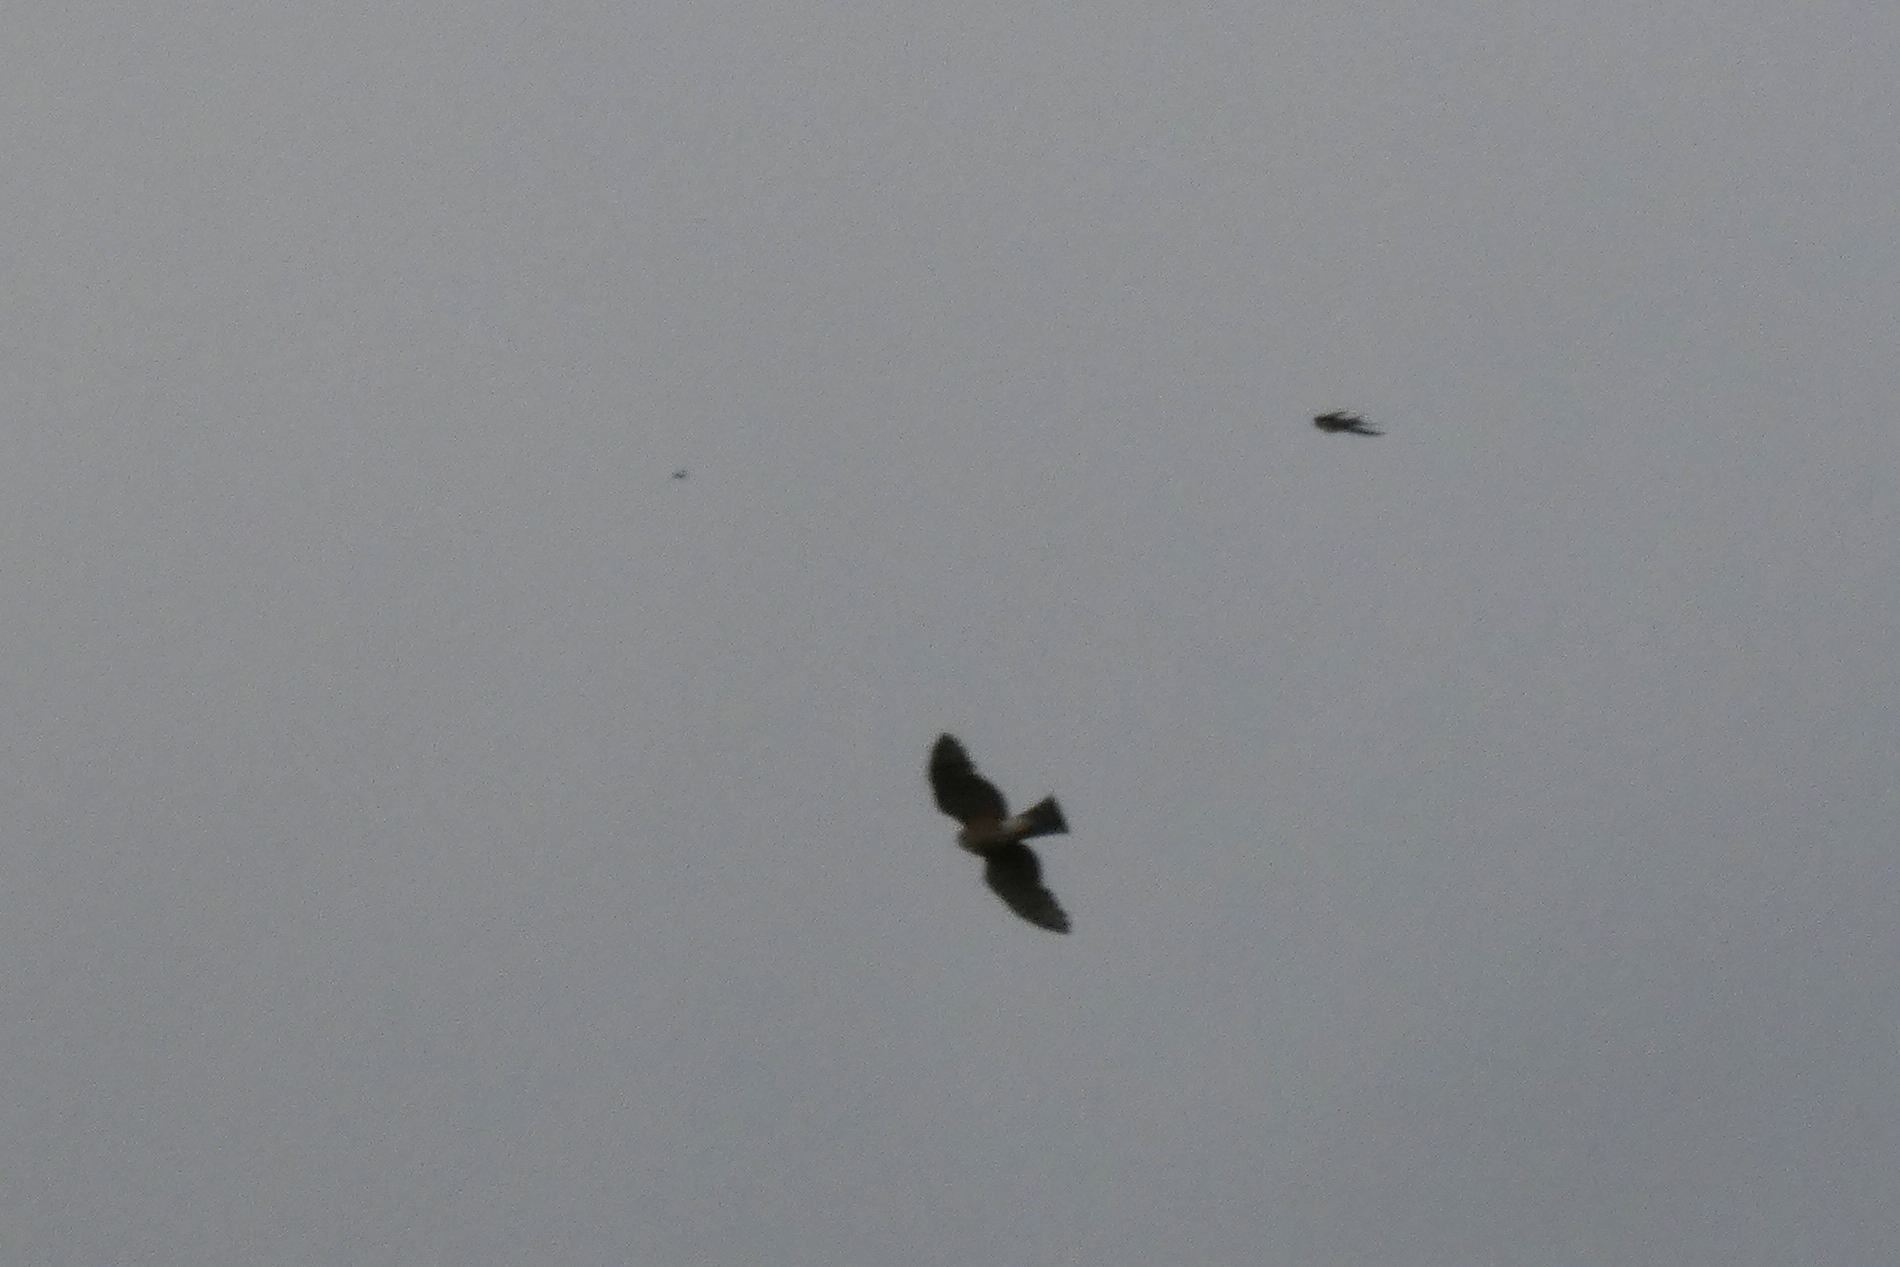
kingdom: Animalia
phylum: Chordata
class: Aves
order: Accipitriformes
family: Accipitridae
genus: Accipiter
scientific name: Accipiter striatus
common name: Sharp-shinned hawk
